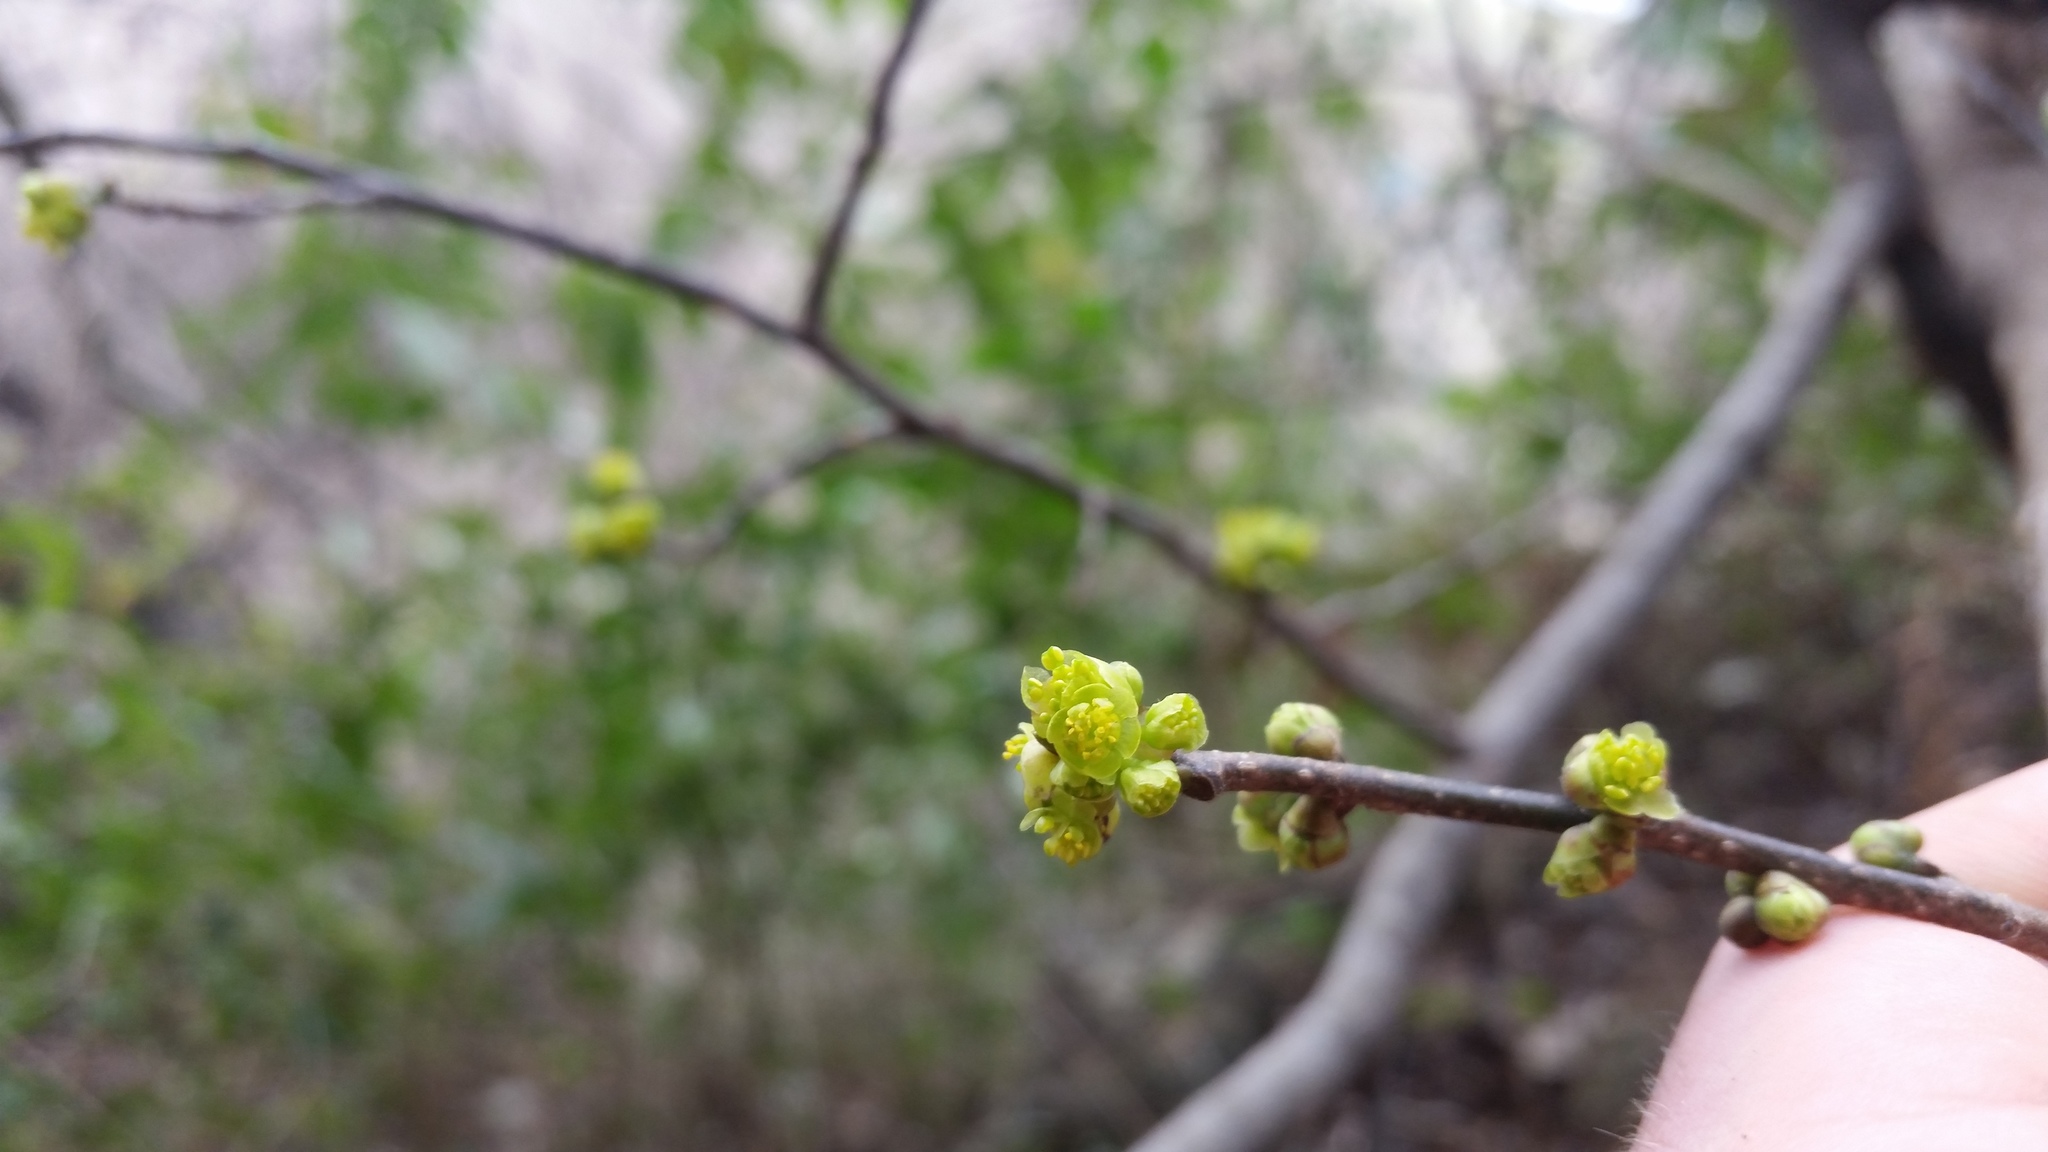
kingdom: Plantae
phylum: Tracheophyta
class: Magnoliopsida
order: Laurales
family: Lauraceae
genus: Lindera
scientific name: Lindera benzoin
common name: Spicebush
